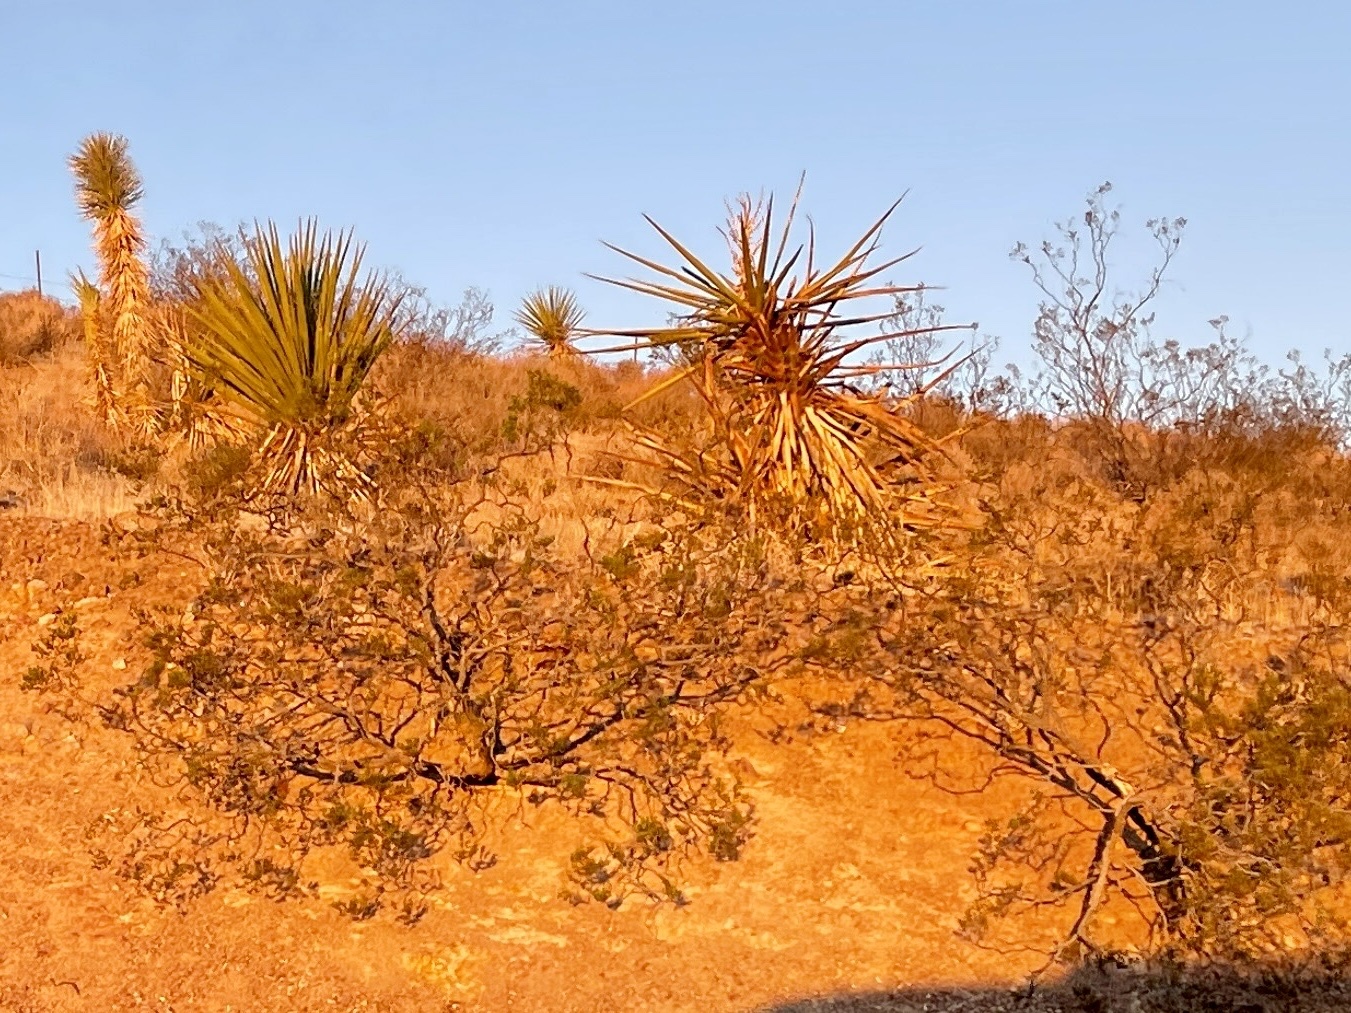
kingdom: Plantae
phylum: Tracheophyta
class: Magnoliopsida
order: Zygophyllales
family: Zygophyllaceae
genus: Larrea
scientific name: Larrea tridentata
